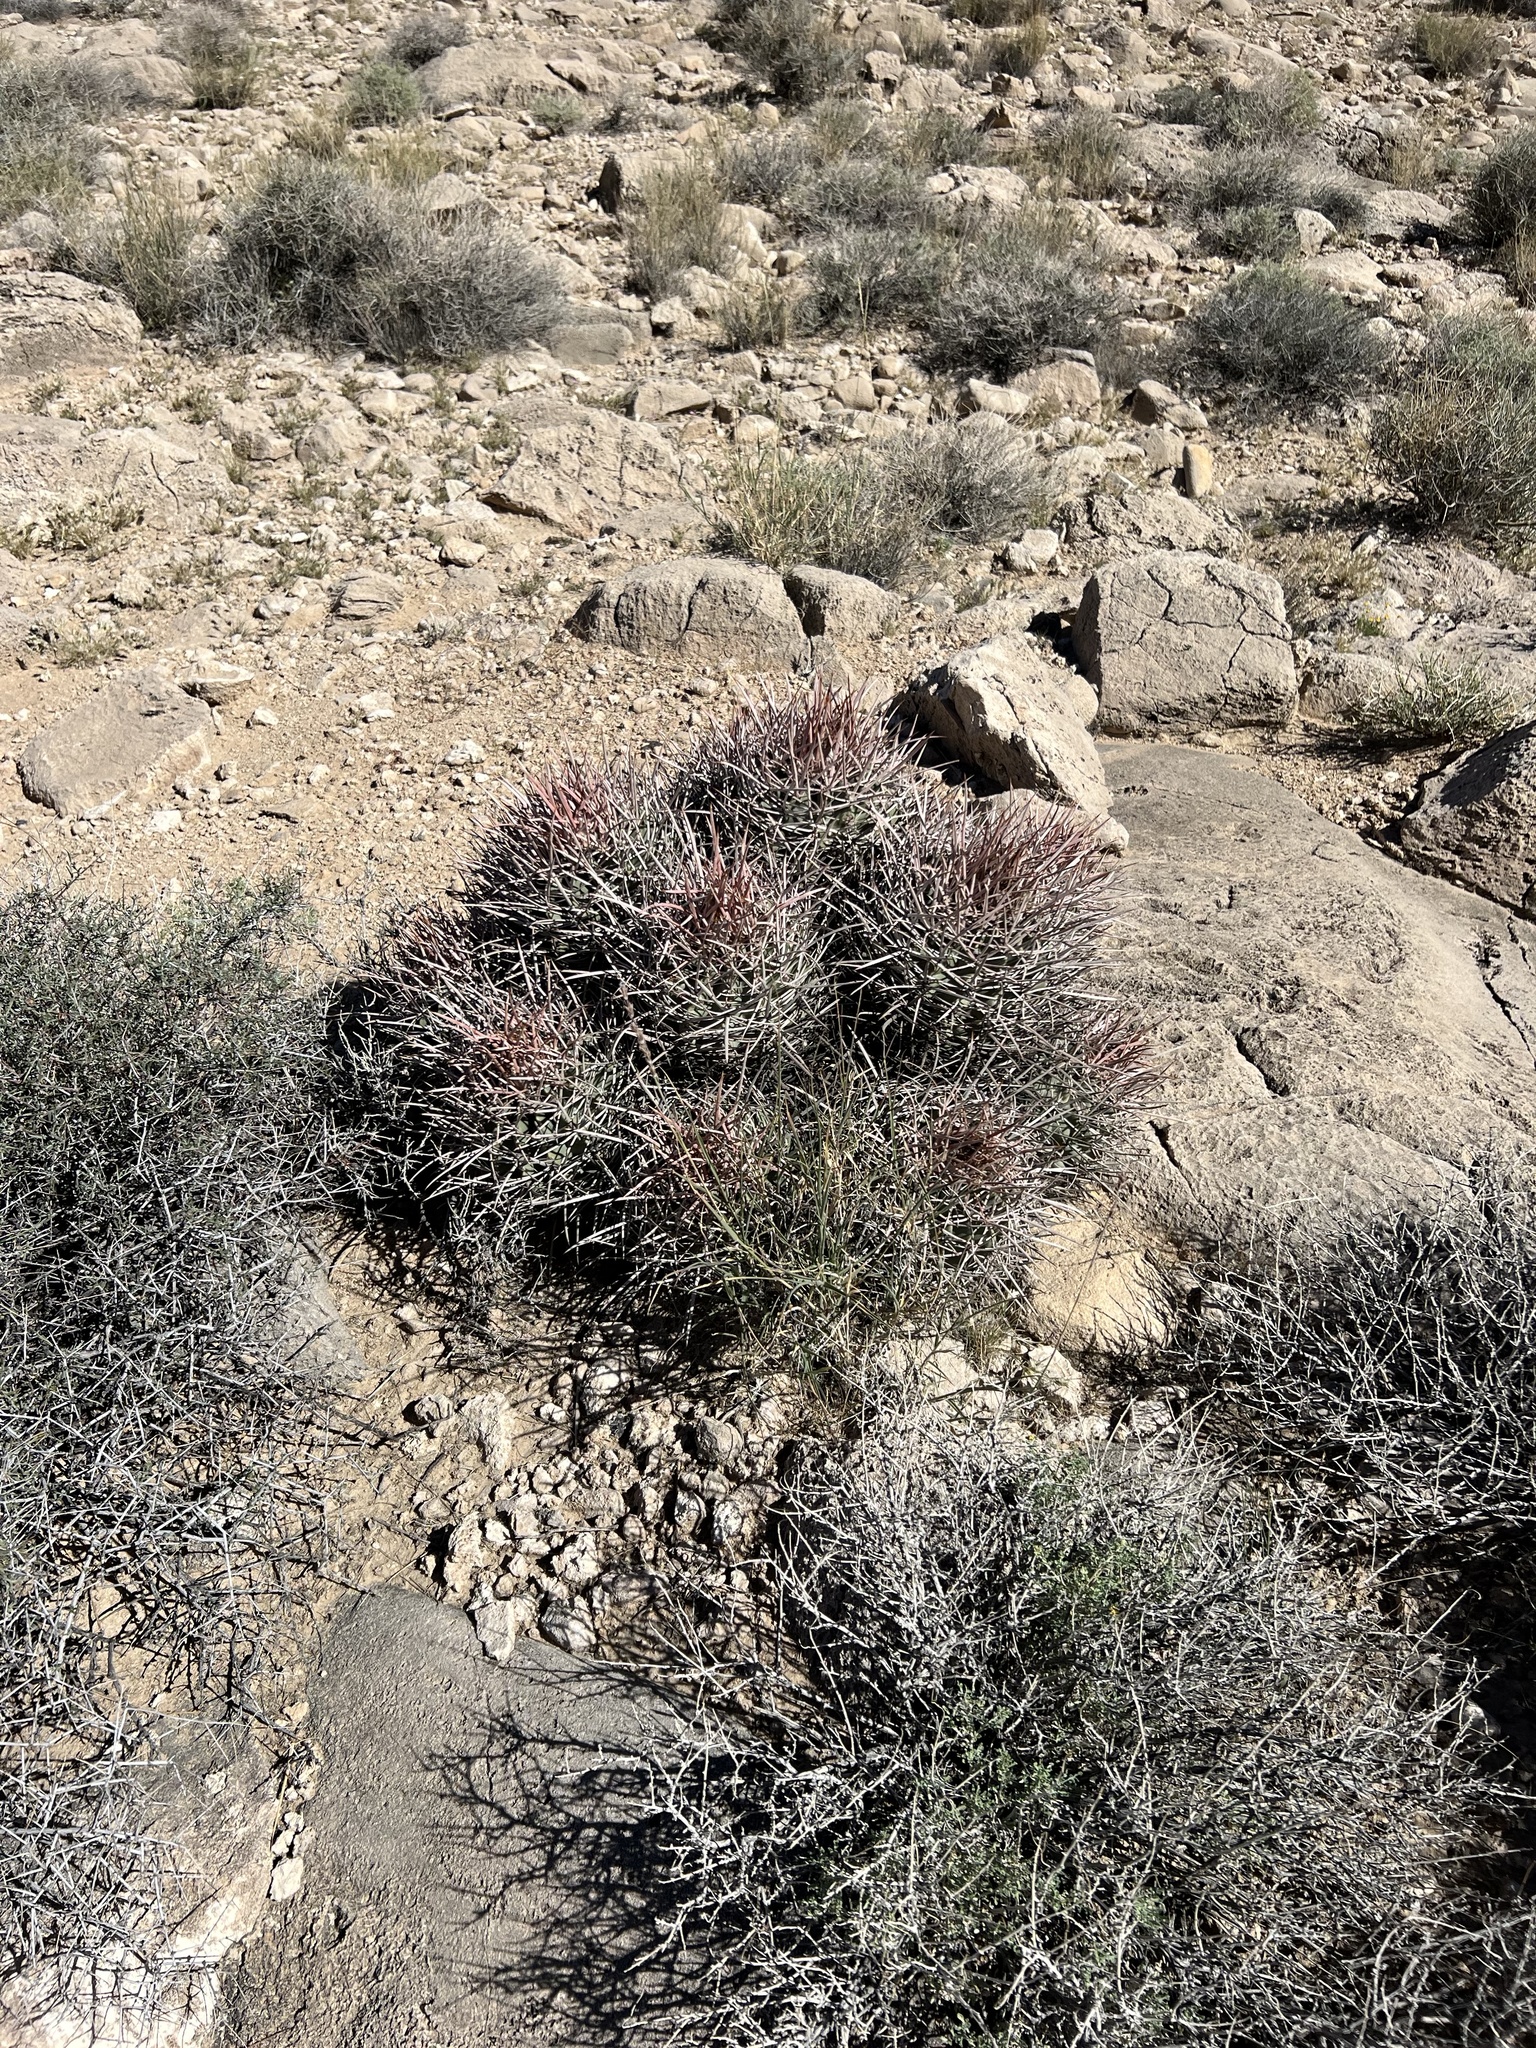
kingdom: Plantae
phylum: Tracheophyta
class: Magnoliopsida
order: Caryophyllales
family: Cactaceae
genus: Echinocactus
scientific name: Echinocactus polycephalus
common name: Cottontop cactus
